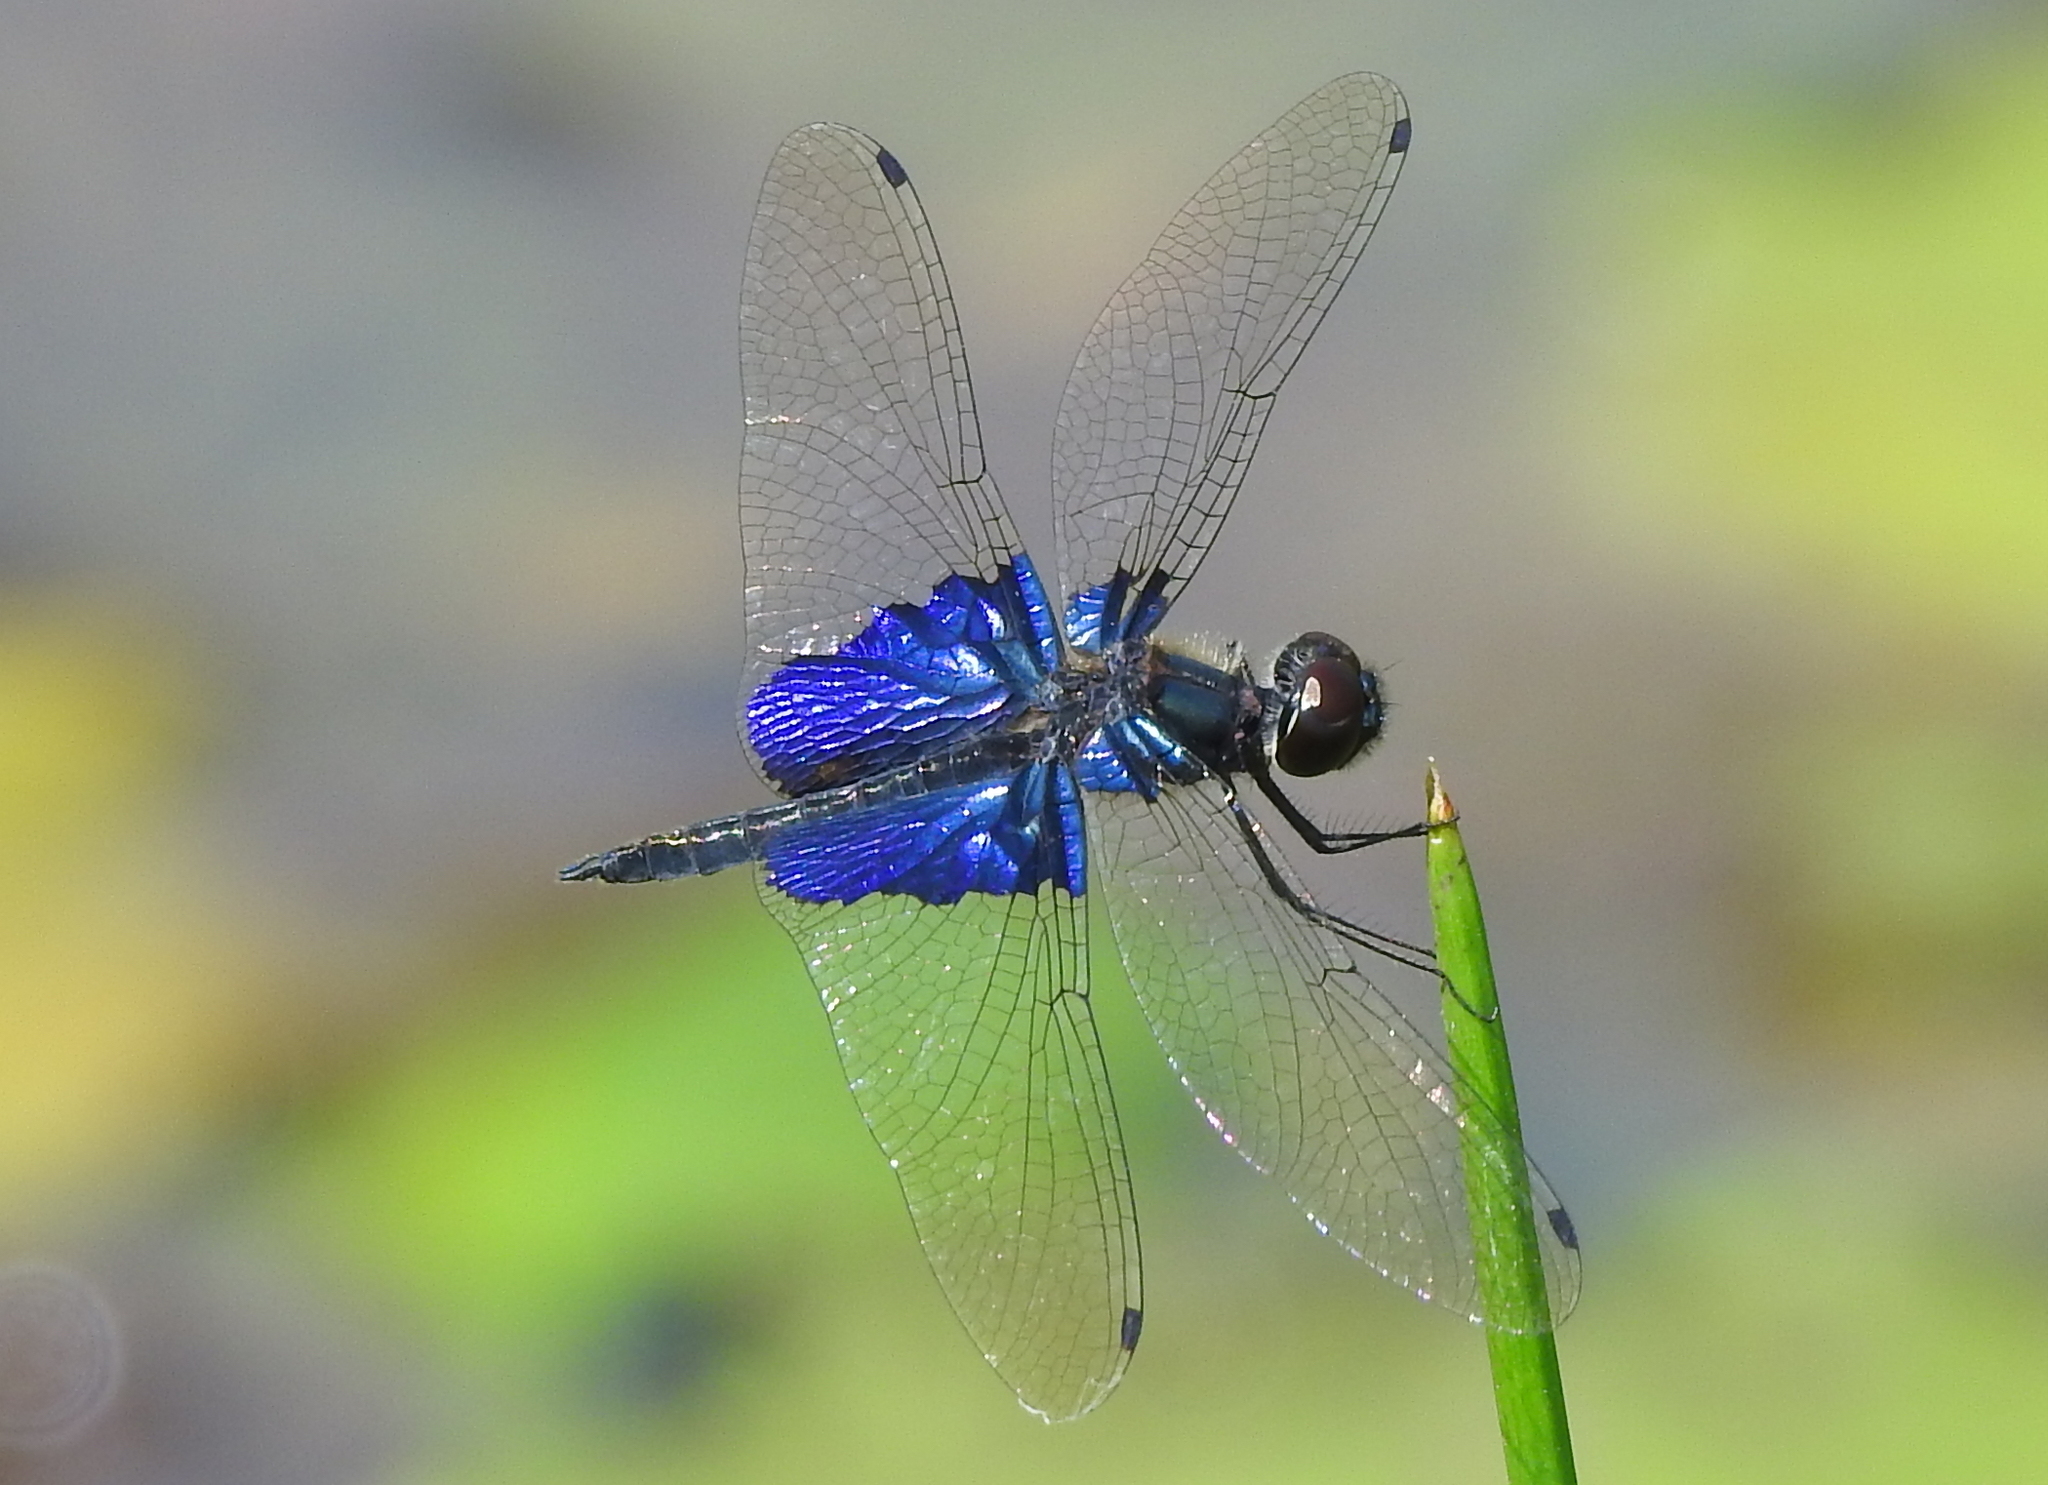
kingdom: Animalia
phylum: Arthropoda
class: Insecta
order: Odonata
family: Libellulidae
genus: Rhyothemis
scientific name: Rhyothemis triangularis
